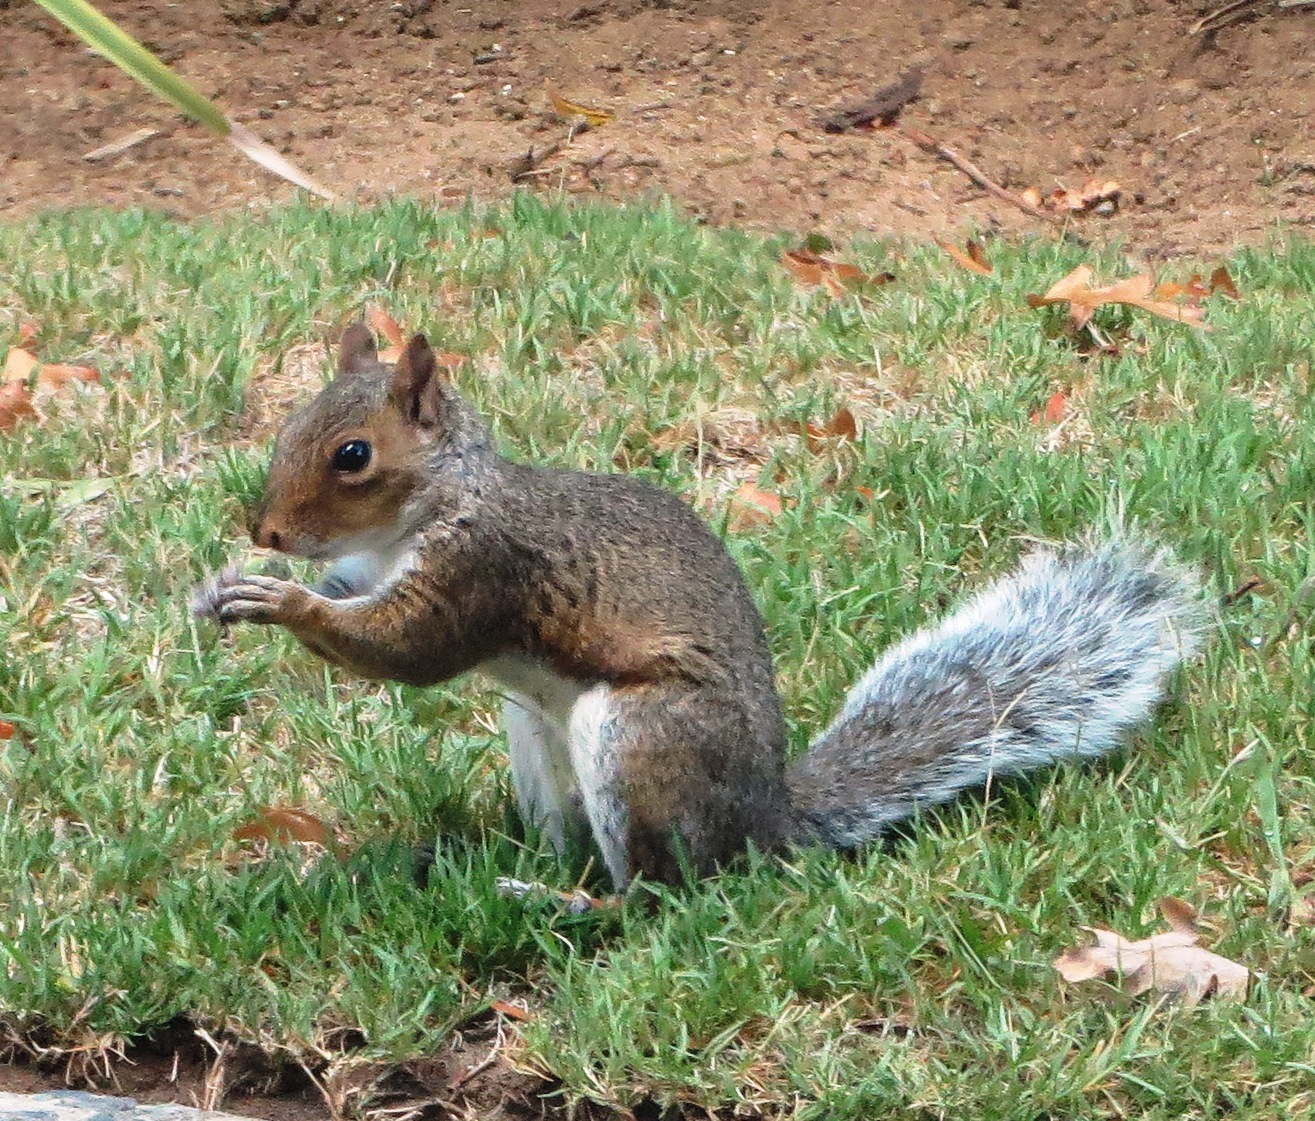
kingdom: Animalia
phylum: Chordata
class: Mammalia
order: Rodentia
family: Sciuridae
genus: Sciurus
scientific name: Sciurus carolinensis
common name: Eastern gray squirrel
